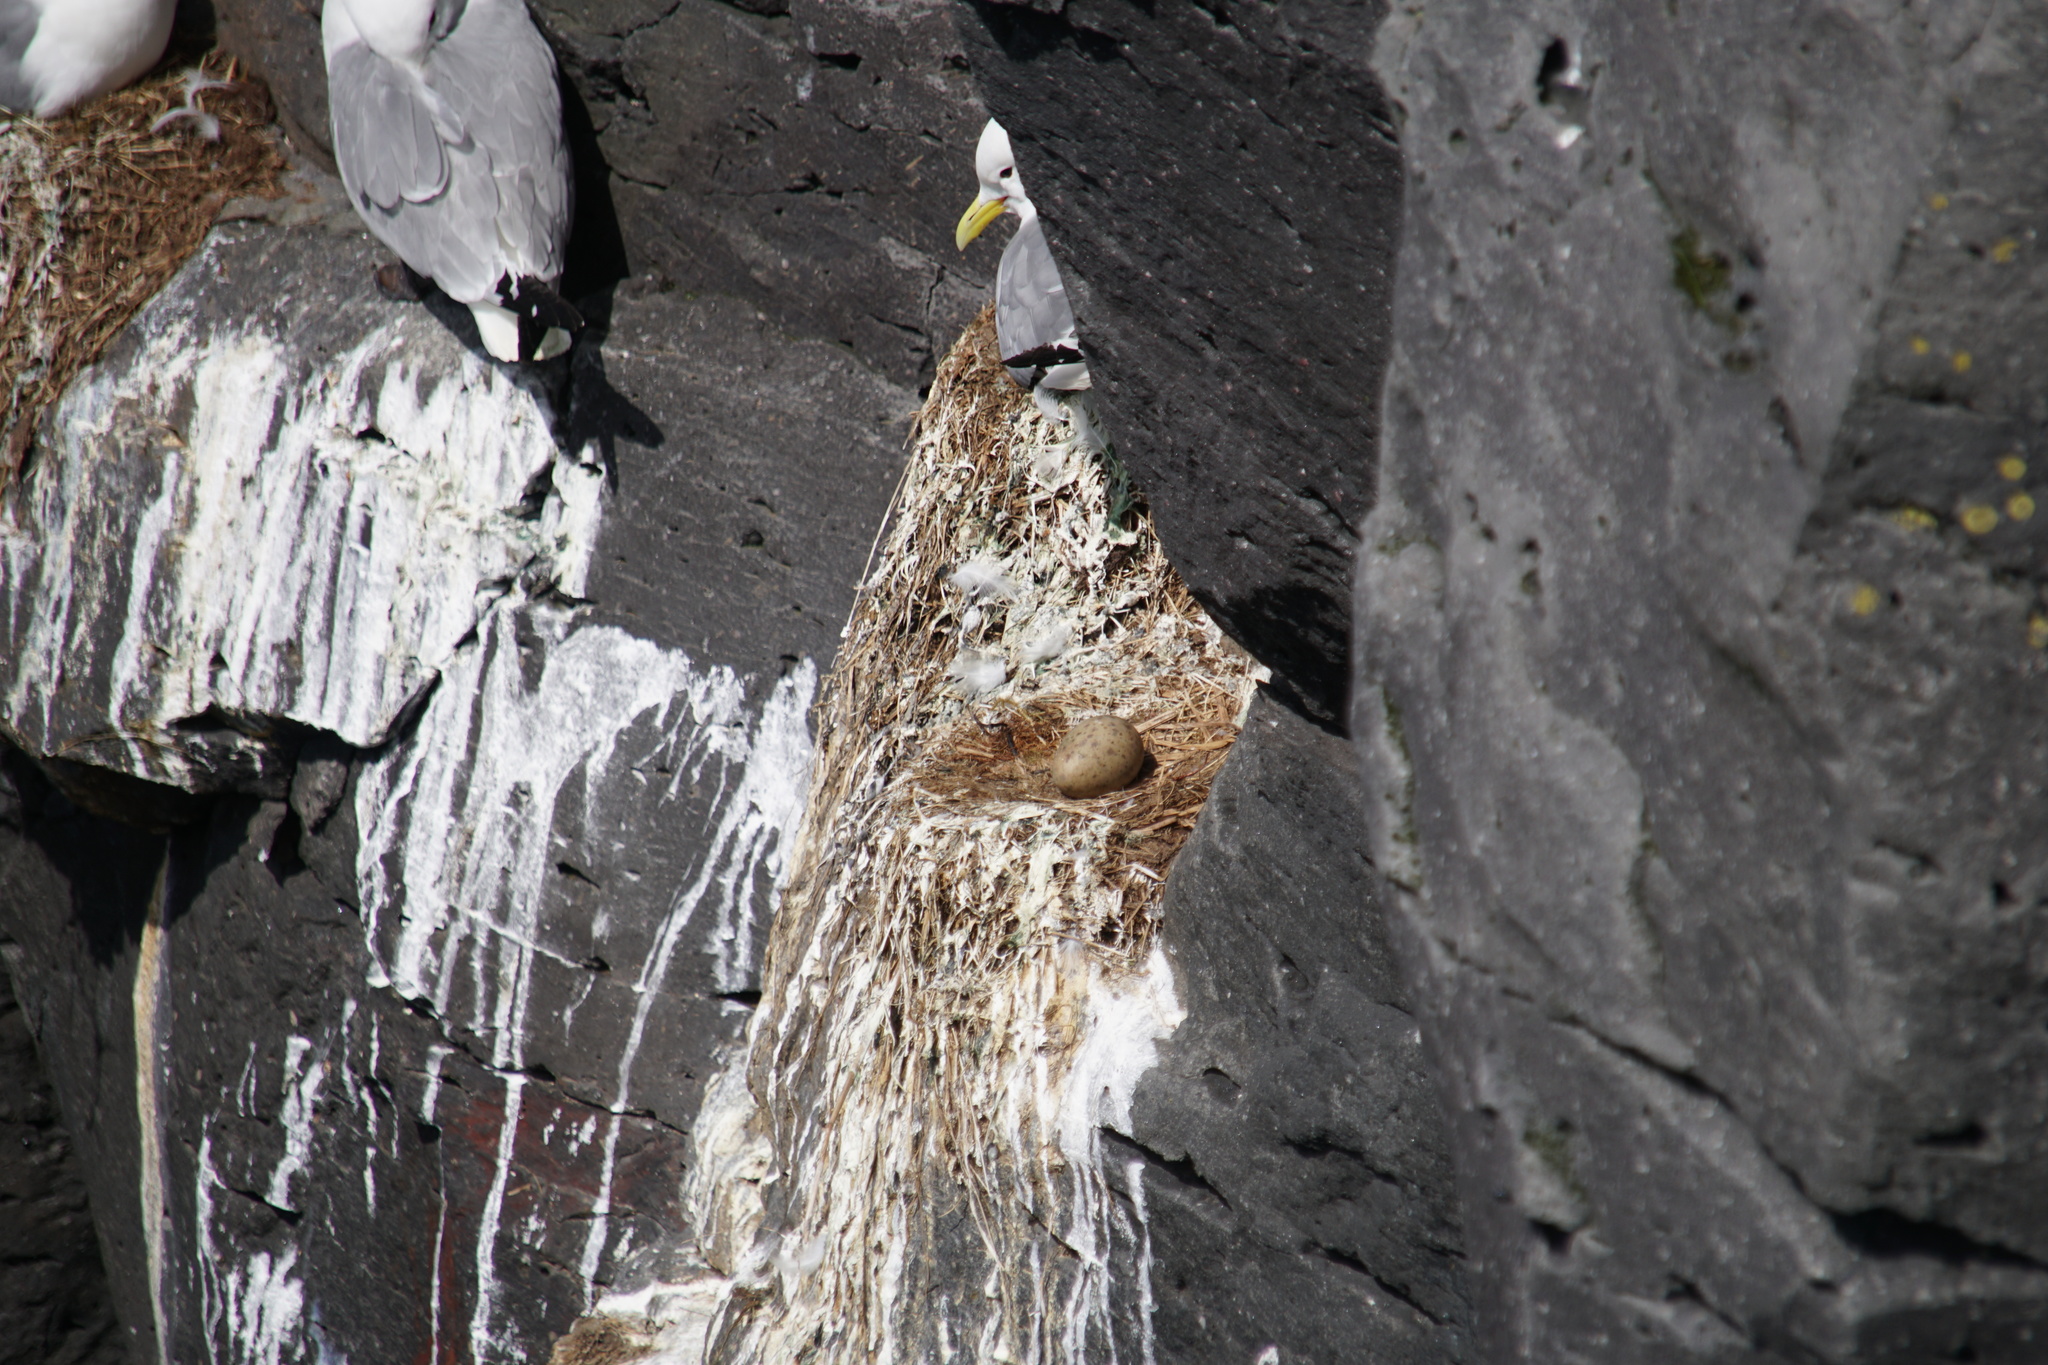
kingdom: Animalia
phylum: Chordata
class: Aves
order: Charadriiformes
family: Laridae
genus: Rissa
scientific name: Rissa tridactyla
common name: Black-legged kittiwake
